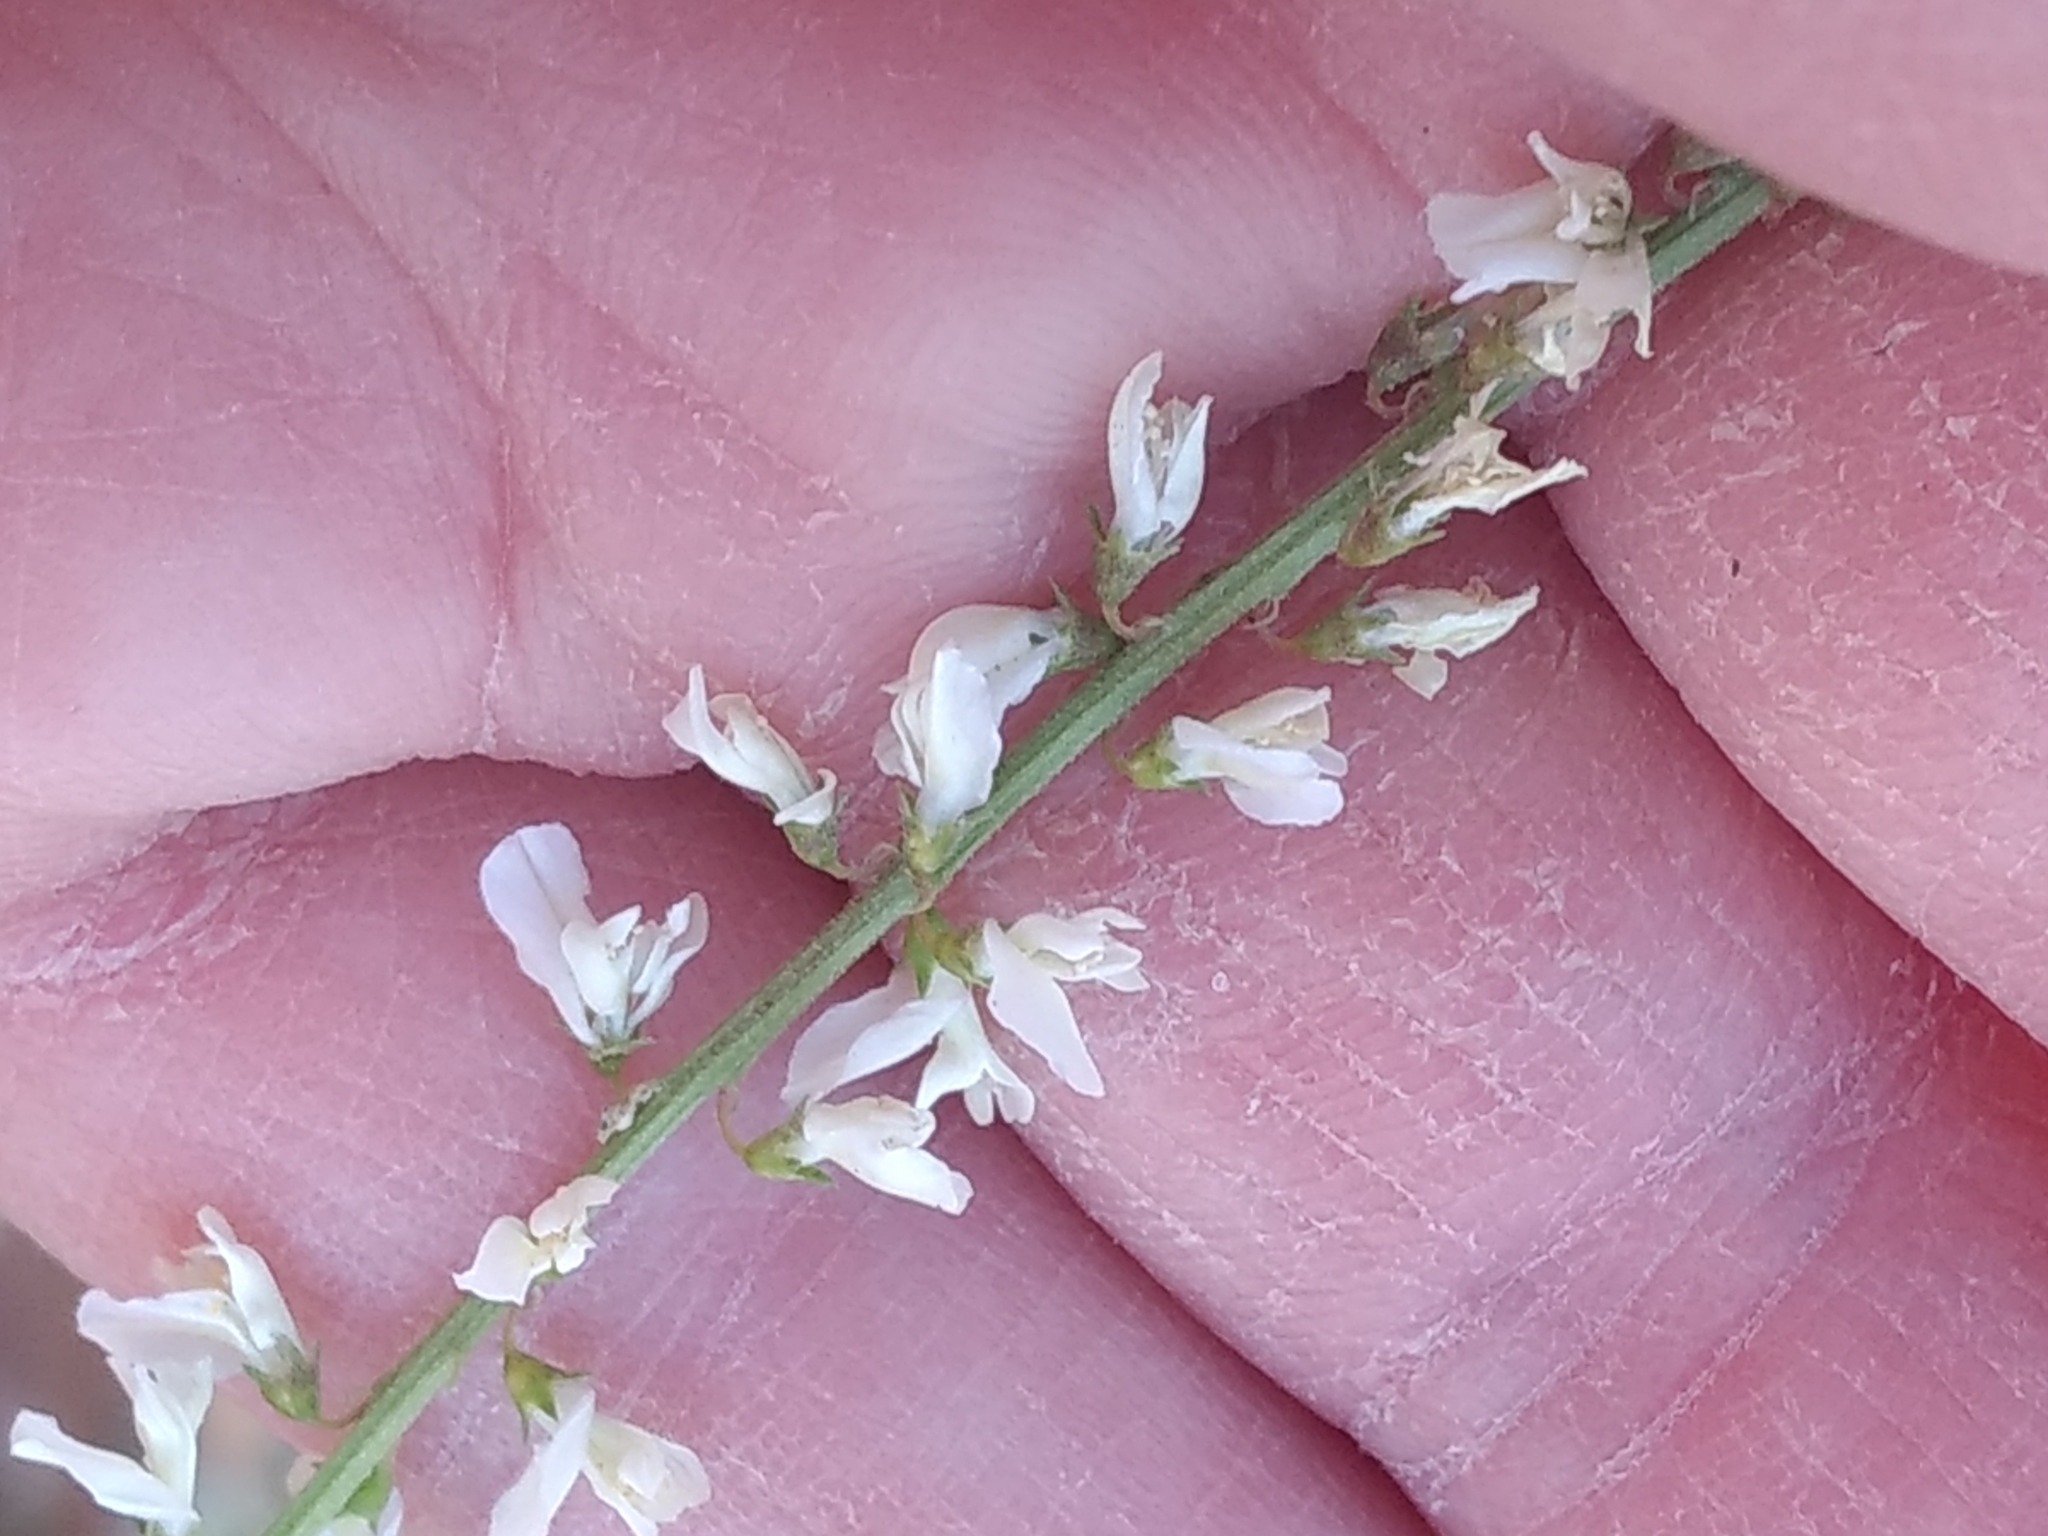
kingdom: Plantae
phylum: Tracheophyta
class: Magnoliopsida
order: Fabales
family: Fabaceae
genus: Melilotus
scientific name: Melilotus albus
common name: White melilot
